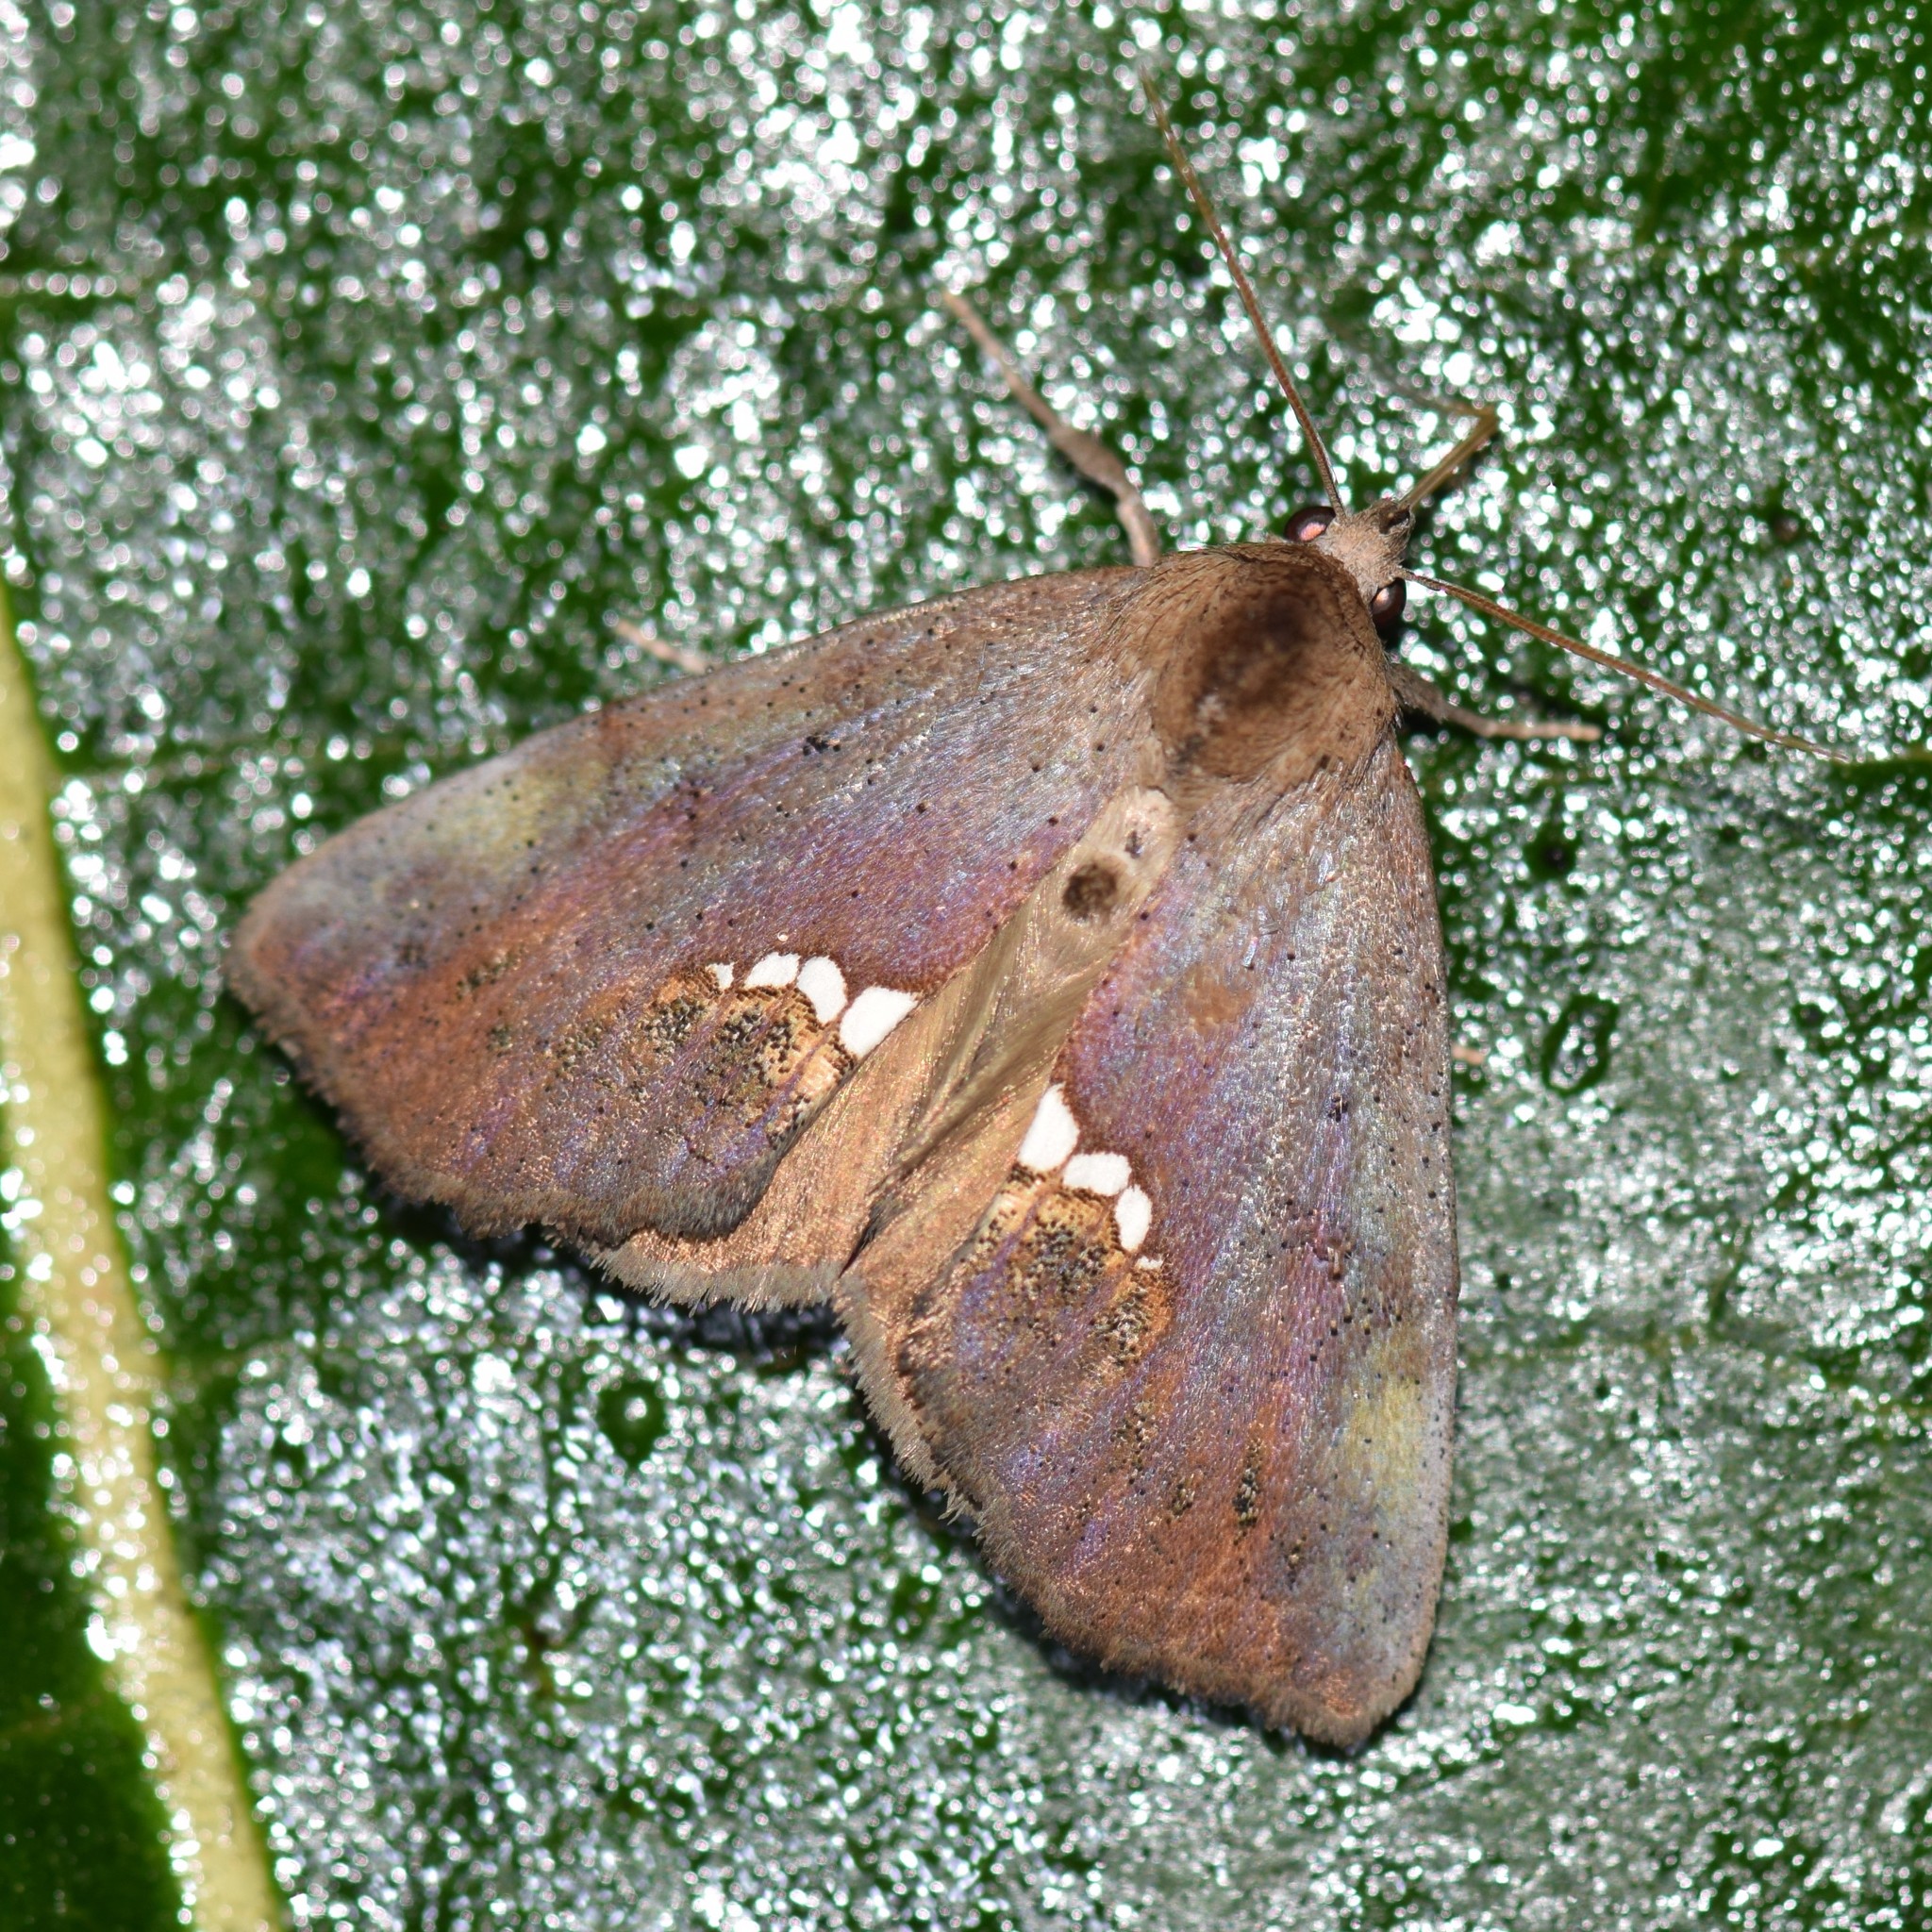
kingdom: Animalia
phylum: Arthropoda
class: Insecta
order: Lepidoptera
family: Erebidae
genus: Hypsoropha
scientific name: Hypsoropha hormos
